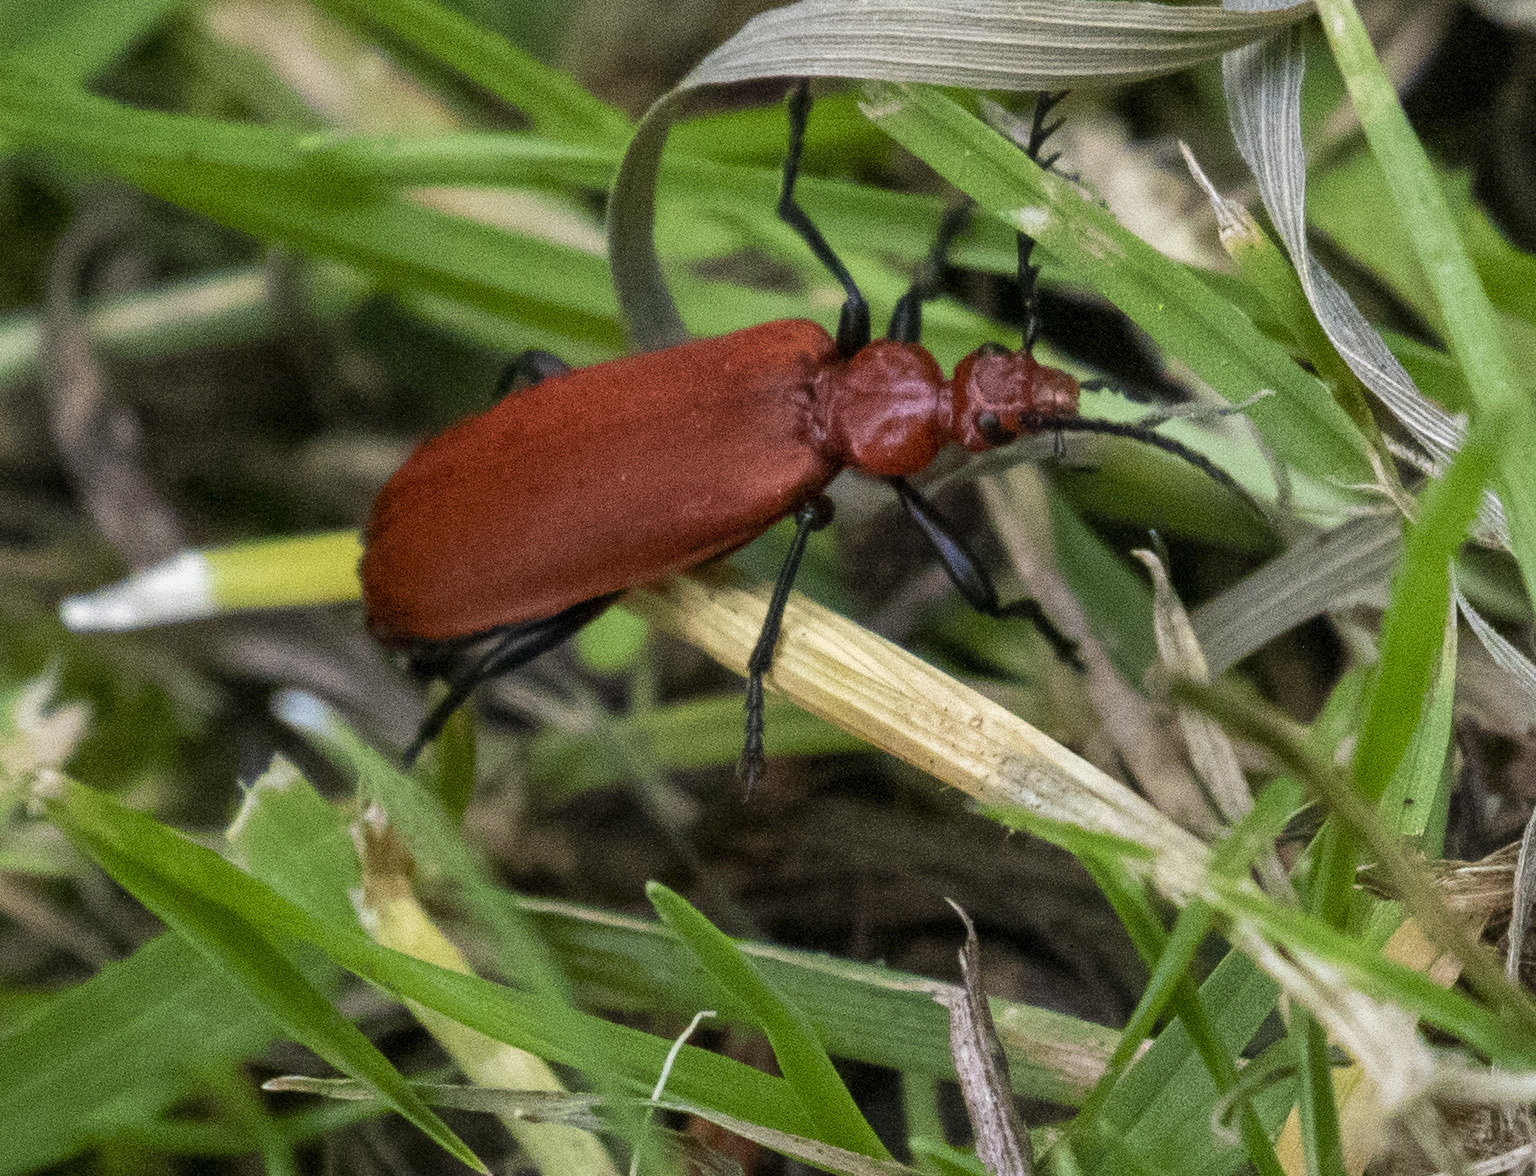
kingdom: Animalia
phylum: Arthropoda
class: Insecta
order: Coleoptera
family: Pyrochroidae
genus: Pyrochroa
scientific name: Pyrochroa serraticornis
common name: Red-headed cardinal beetle
